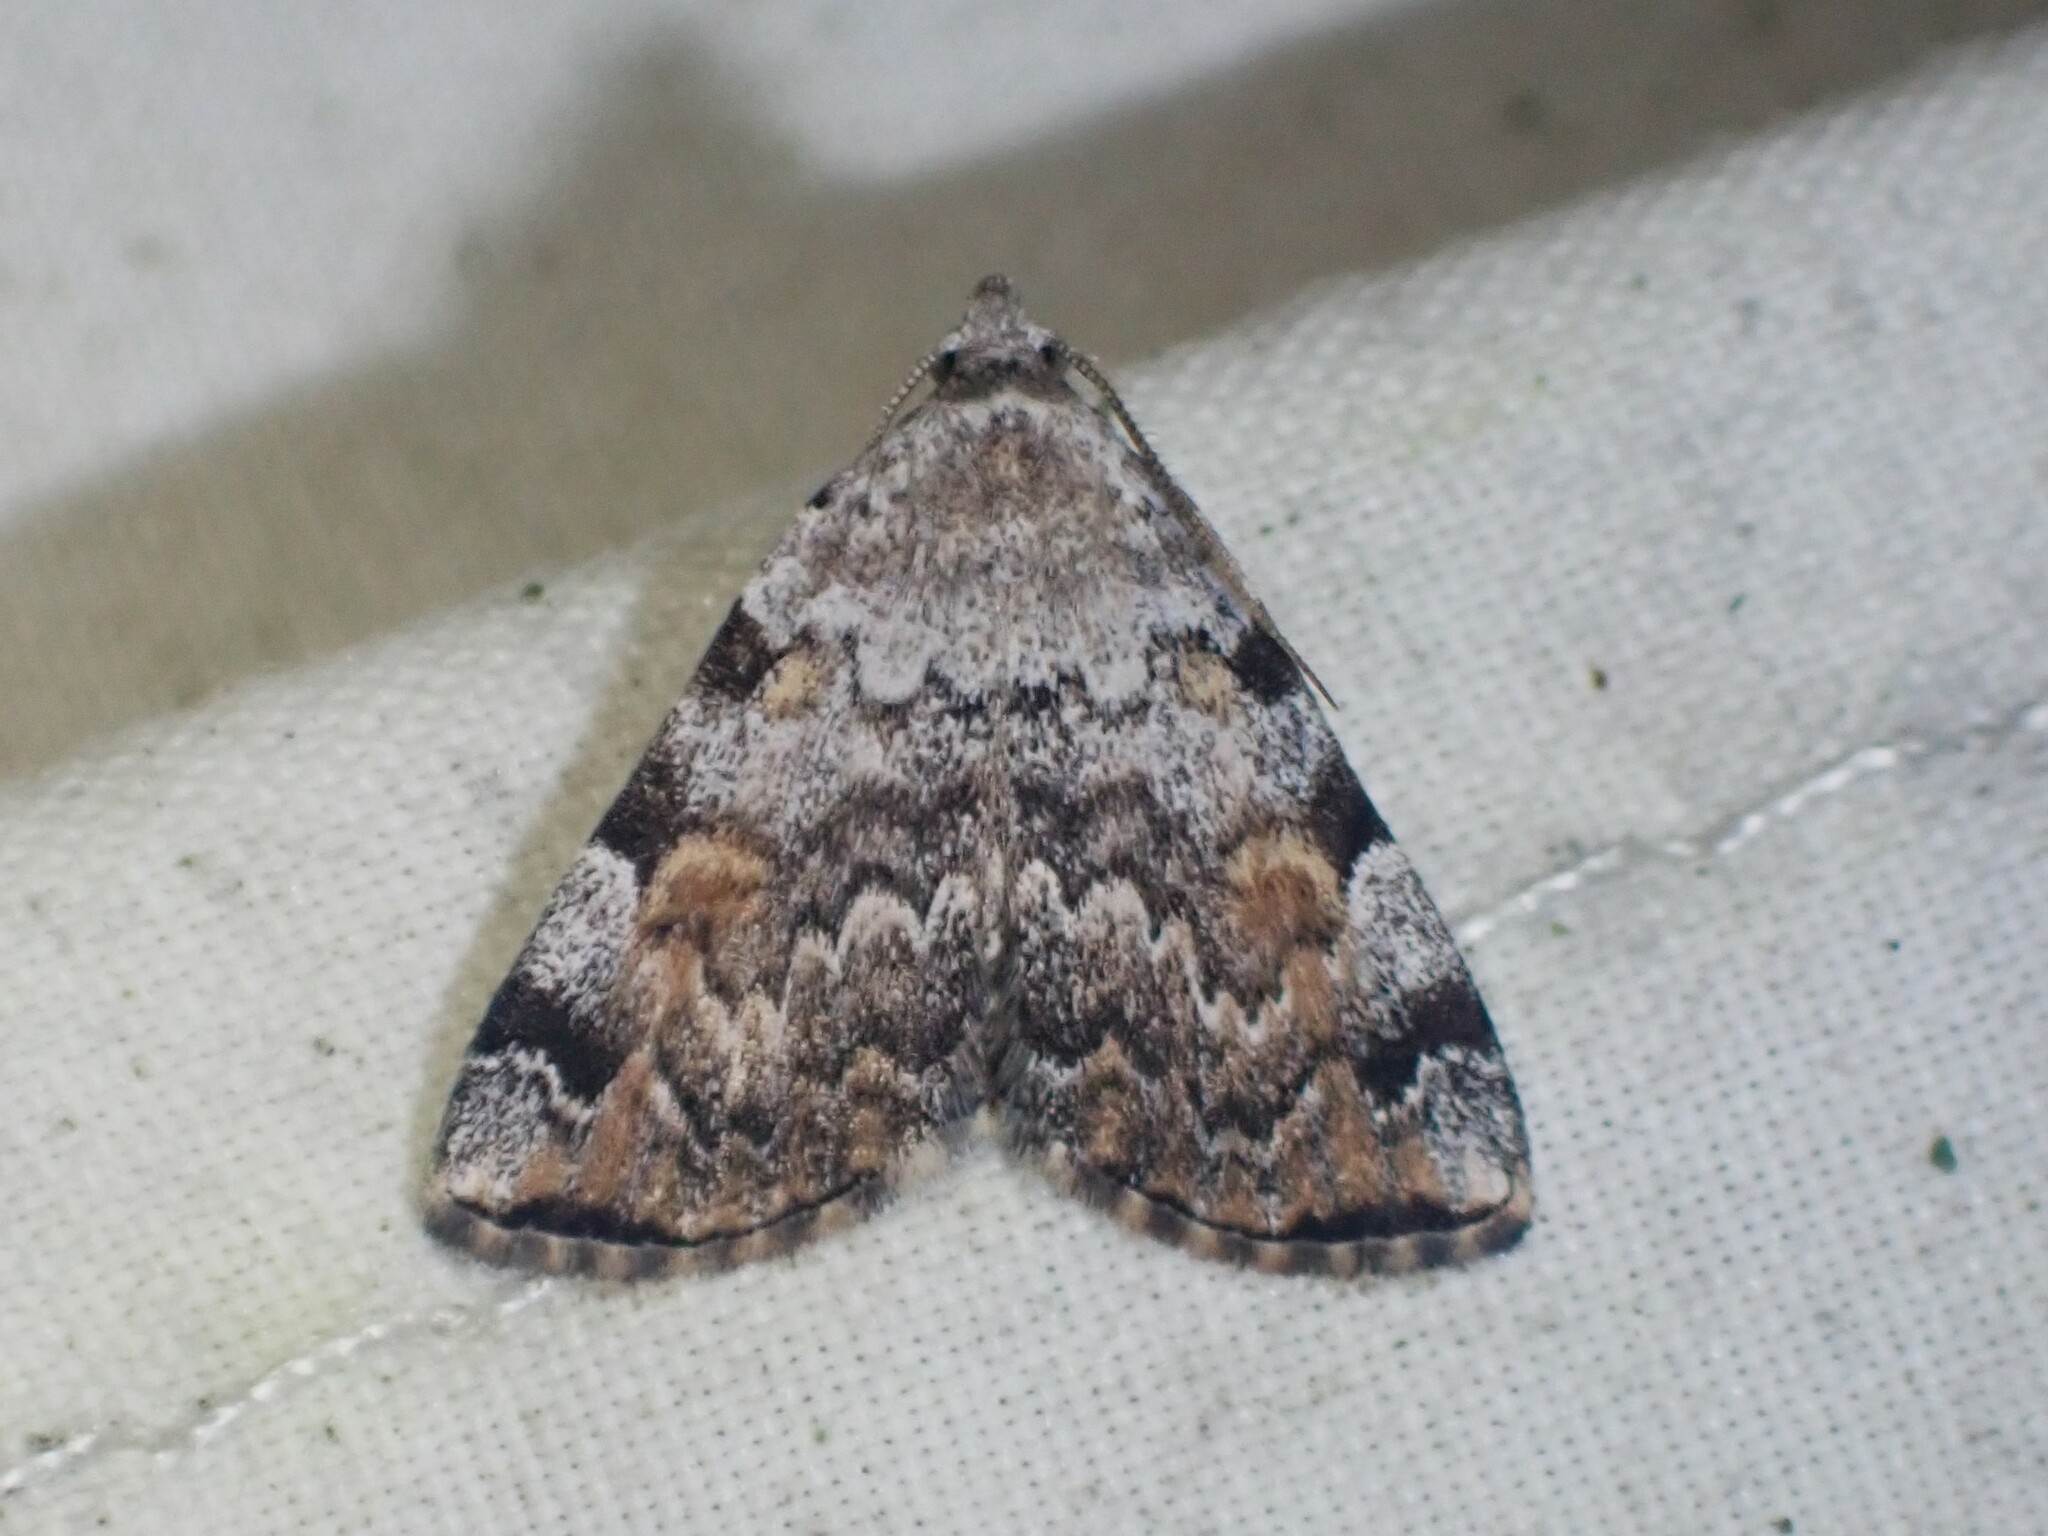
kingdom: Animalia
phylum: Arthropoda
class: Insecta
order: Lepidoptera
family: Erebidae
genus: Idia
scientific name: Idia americalis
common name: American idia moth
